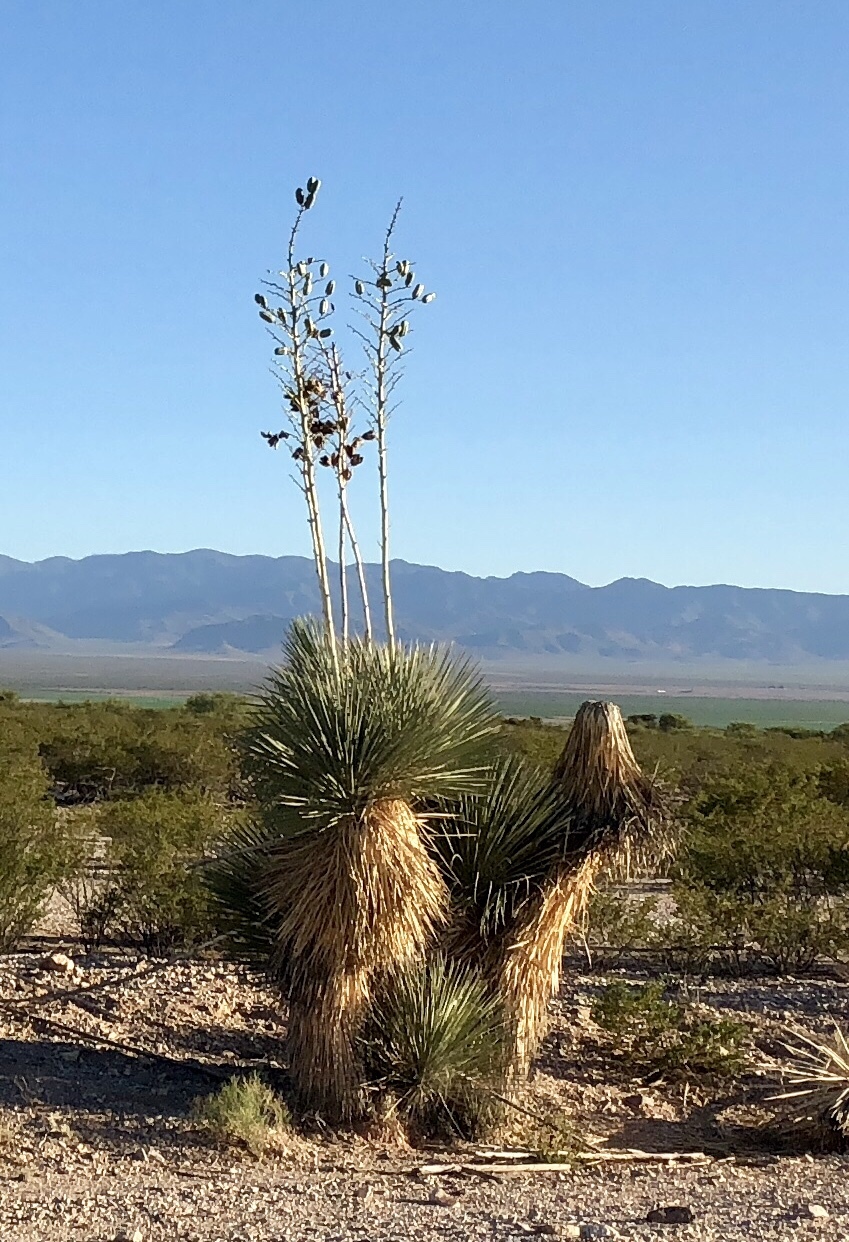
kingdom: Plantae
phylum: Tracheophyta
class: Liliopsida
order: Asparagales
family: Asparagaceae
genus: Yucca
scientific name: Yucca elata
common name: Palmella
